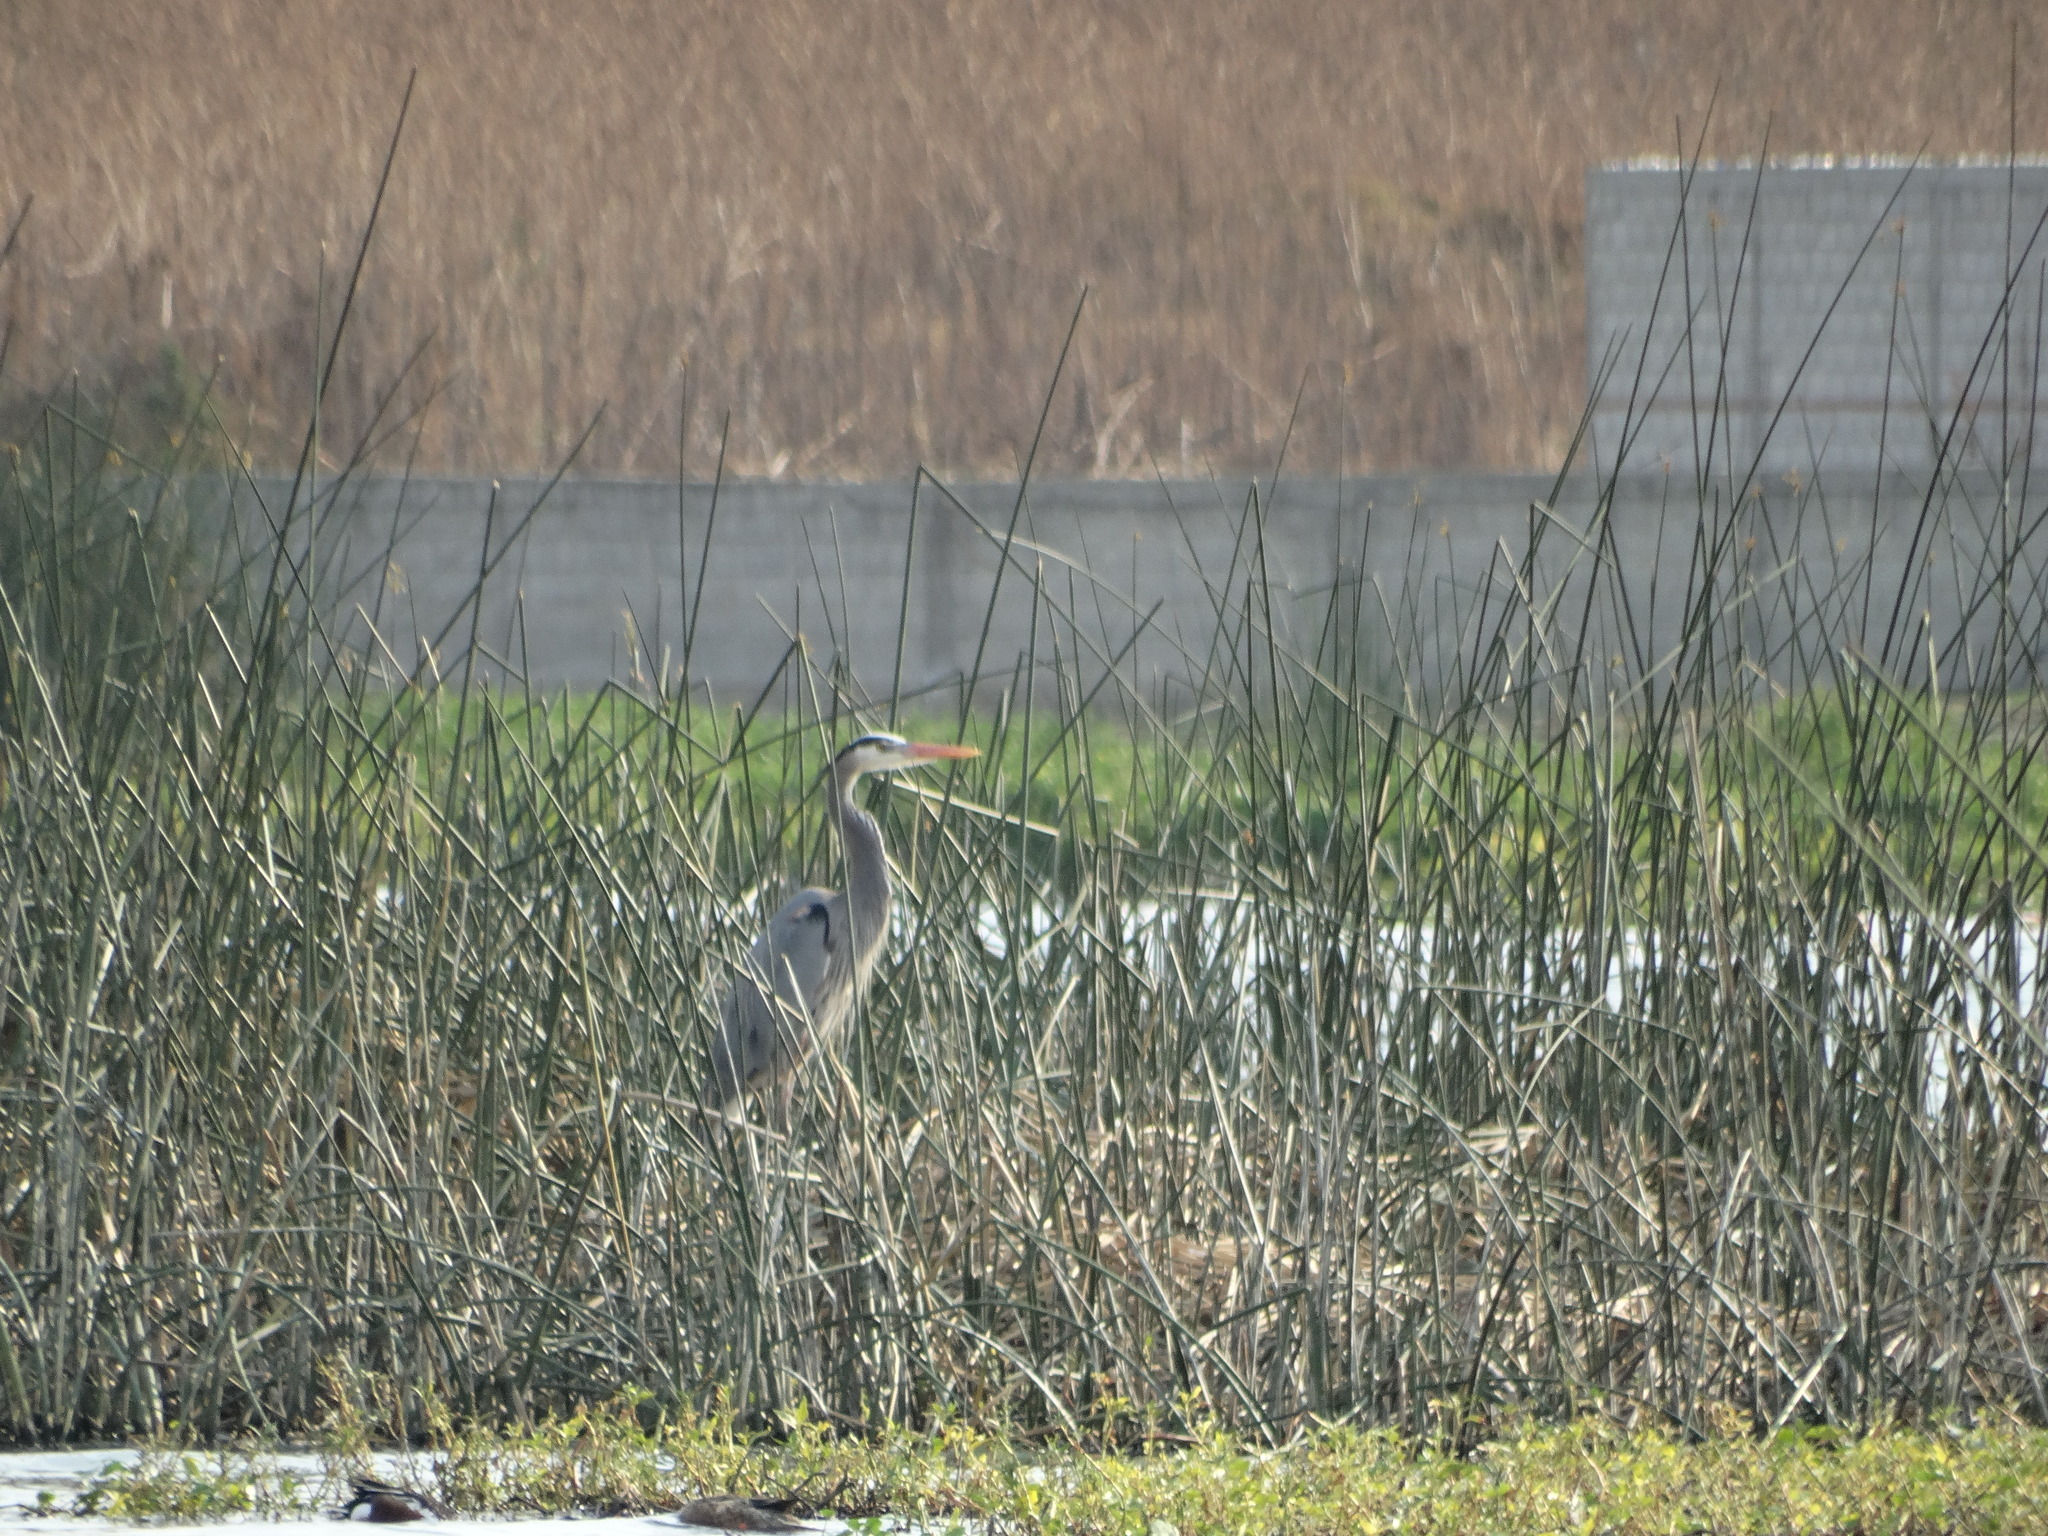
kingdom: Animalia
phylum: Chordata
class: Aves
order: Pelecaniformes
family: Ardeidae
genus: Ardea
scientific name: Ardea herodias
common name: Great blue heron
